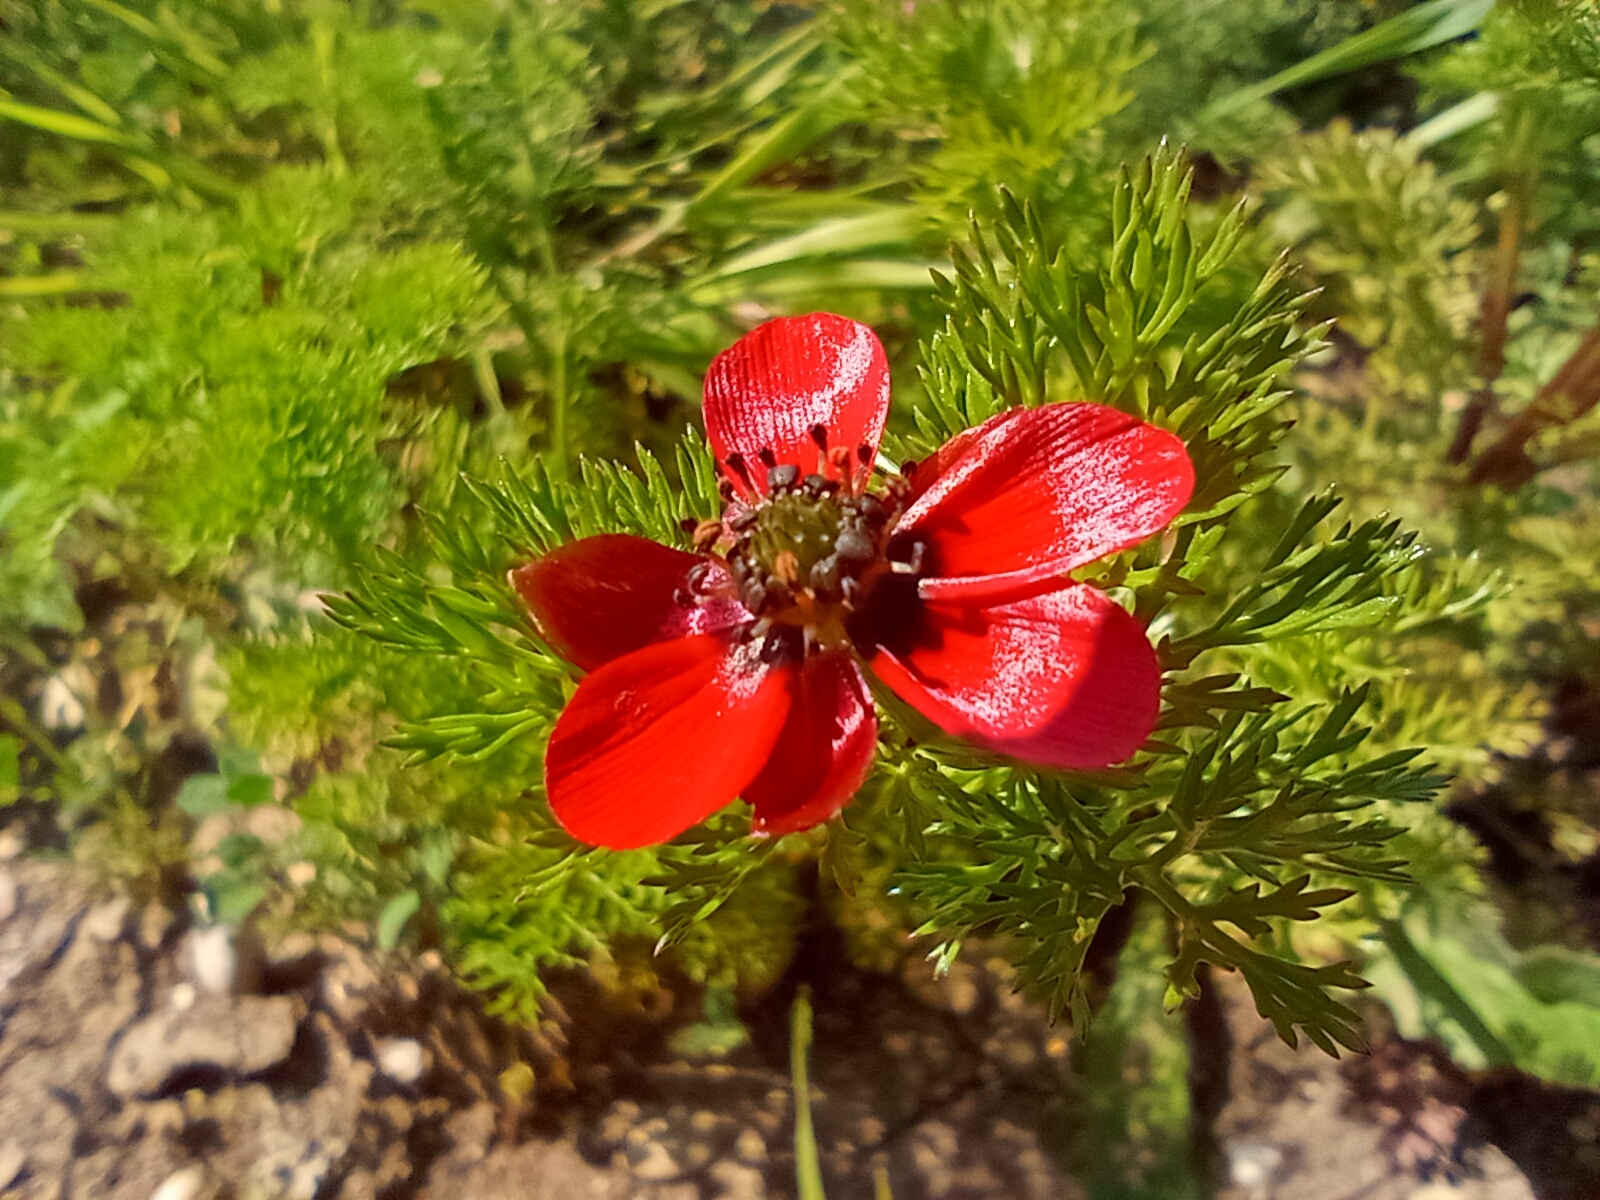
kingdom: Plantae
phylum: Tracheophyta
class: Magnoliopsida
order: Ranunculales
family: Ranunculaceae
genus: Adonis
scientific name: Adonis annua
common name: Pheasant's-eye
